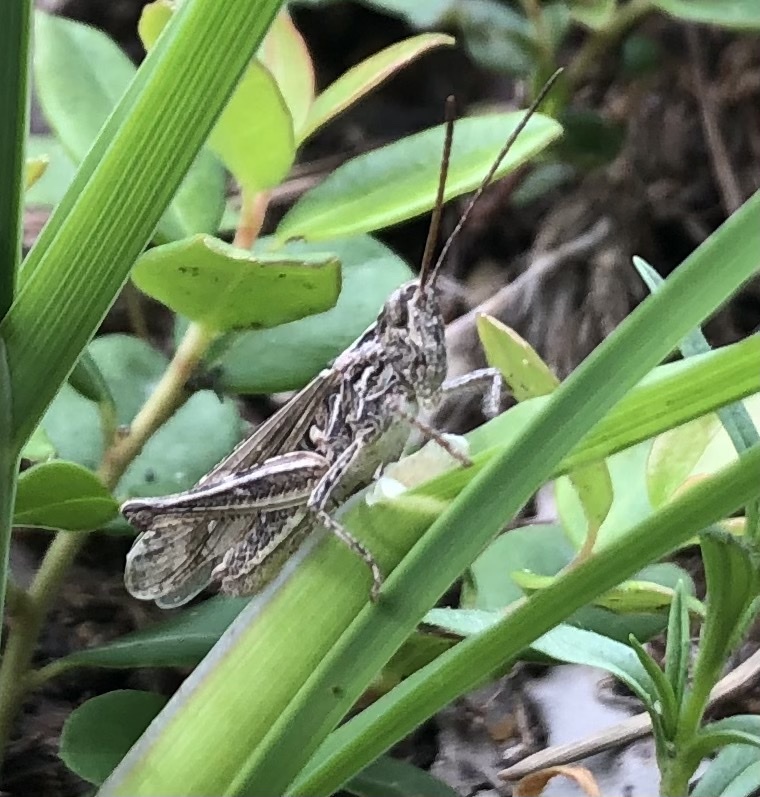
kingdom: Animalia
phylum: Arthropoda
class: Insecta
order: Orthoptera
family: Acrididae
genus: Chorthippus
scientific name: Chorthippus brunneus
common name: Field grasshopper
